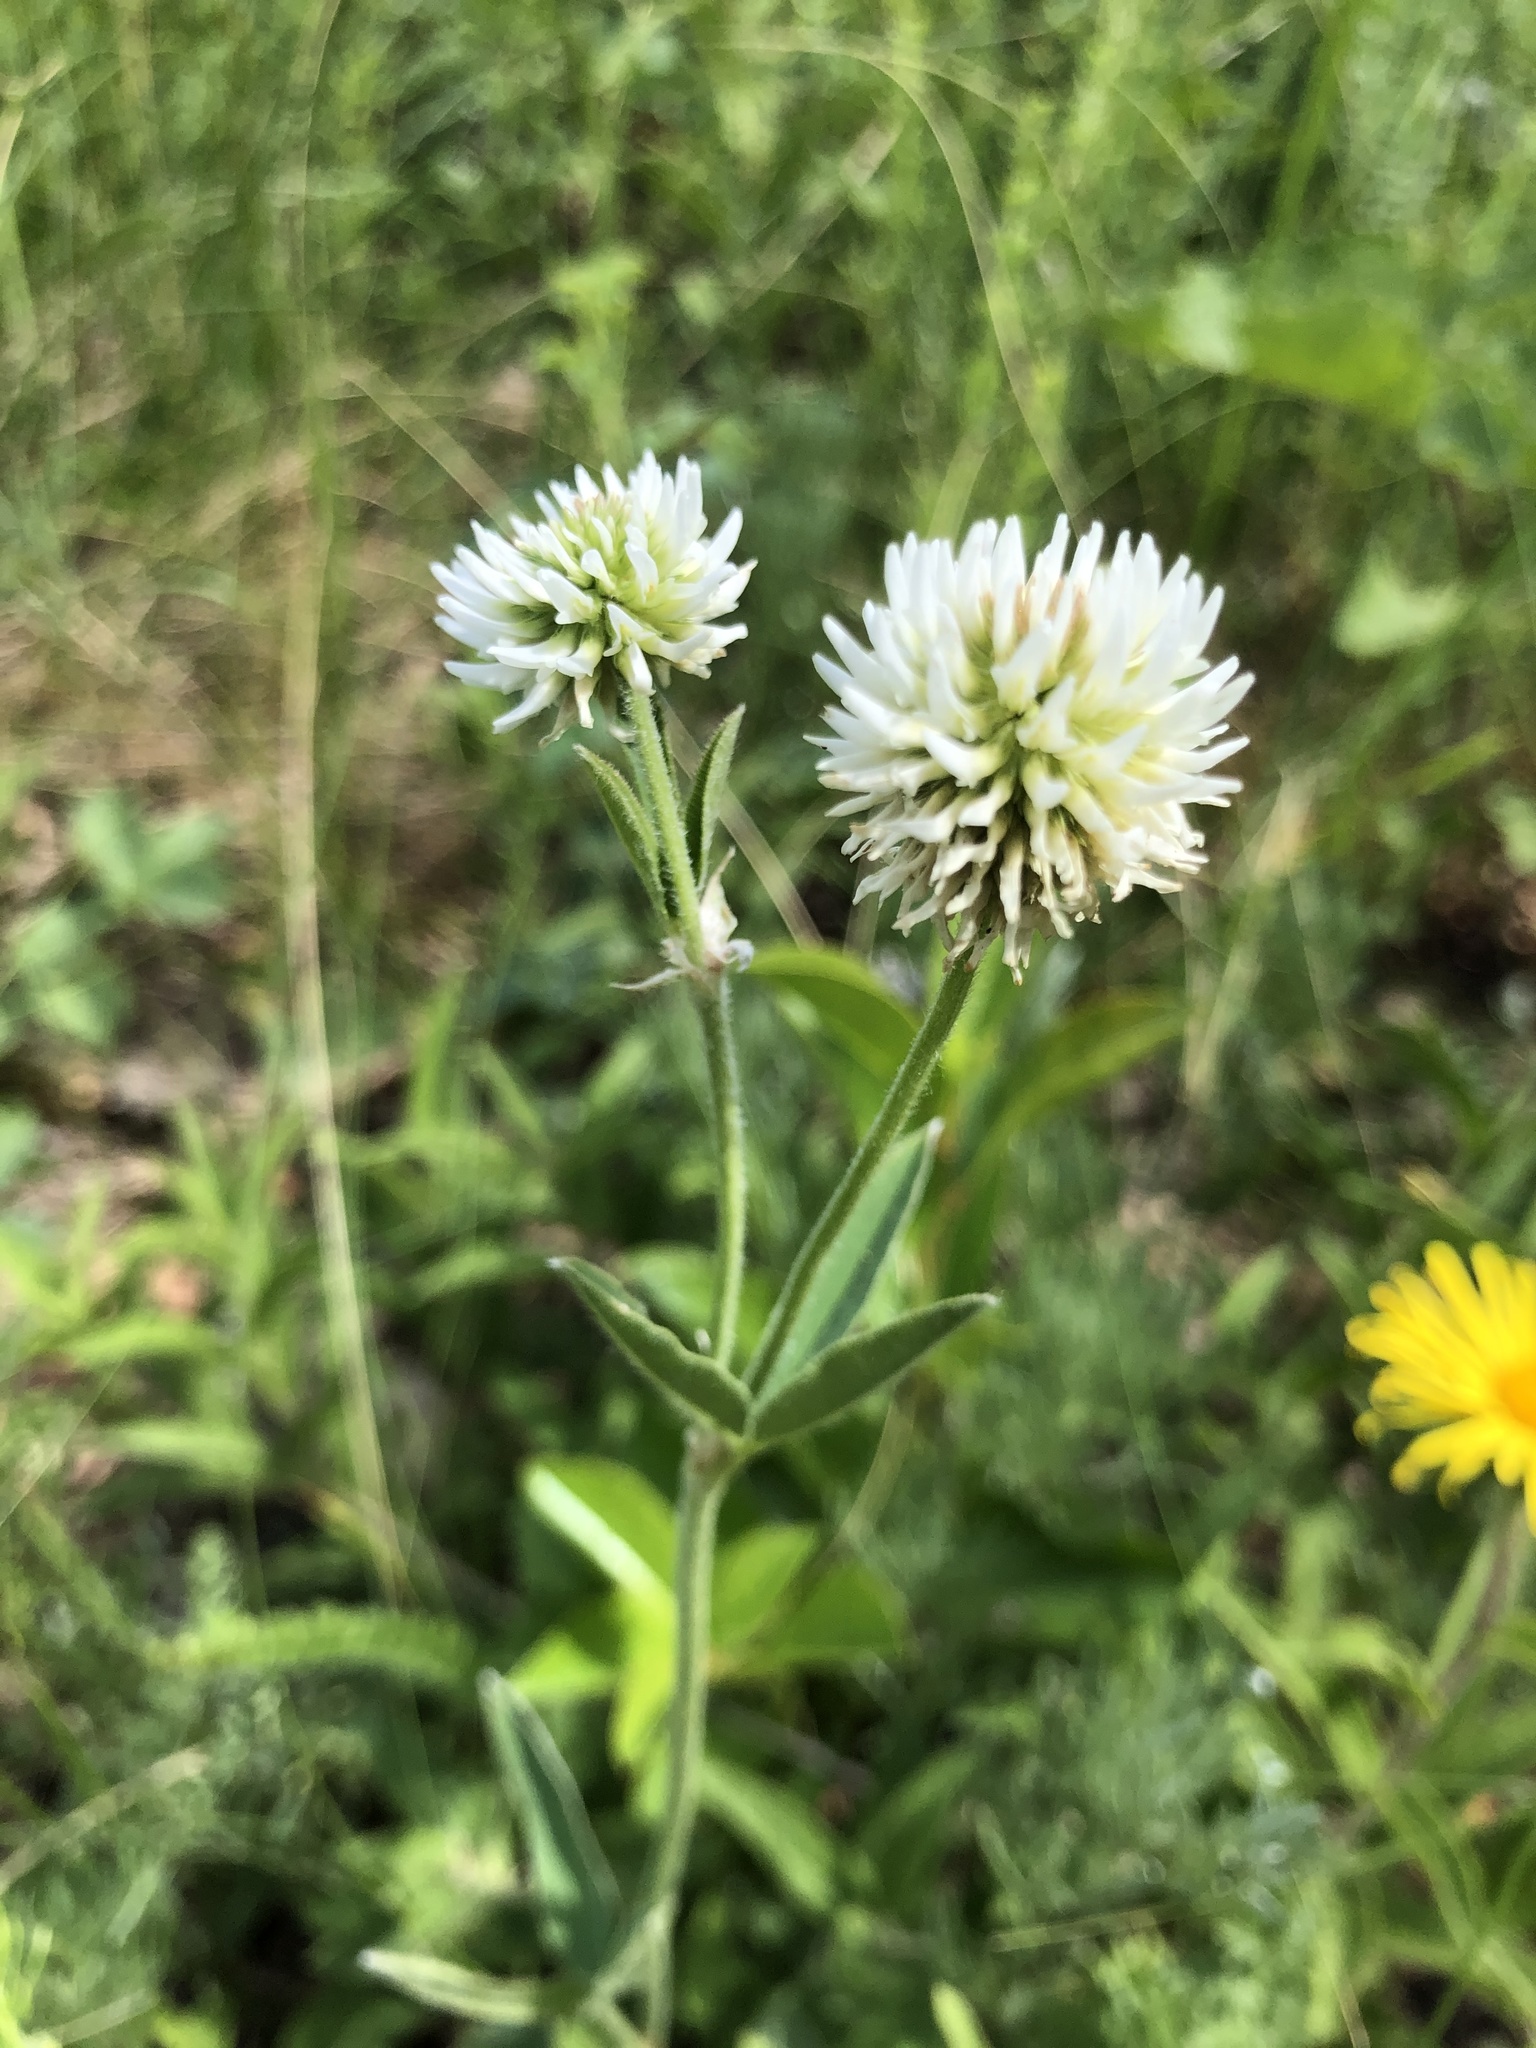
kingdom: Plantae
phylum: Tracheophyta
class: Magnoliopsida
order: Fabales
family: Fabaceae
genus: Trifolium
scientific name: Trifolium montanum
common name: Mountain clover
